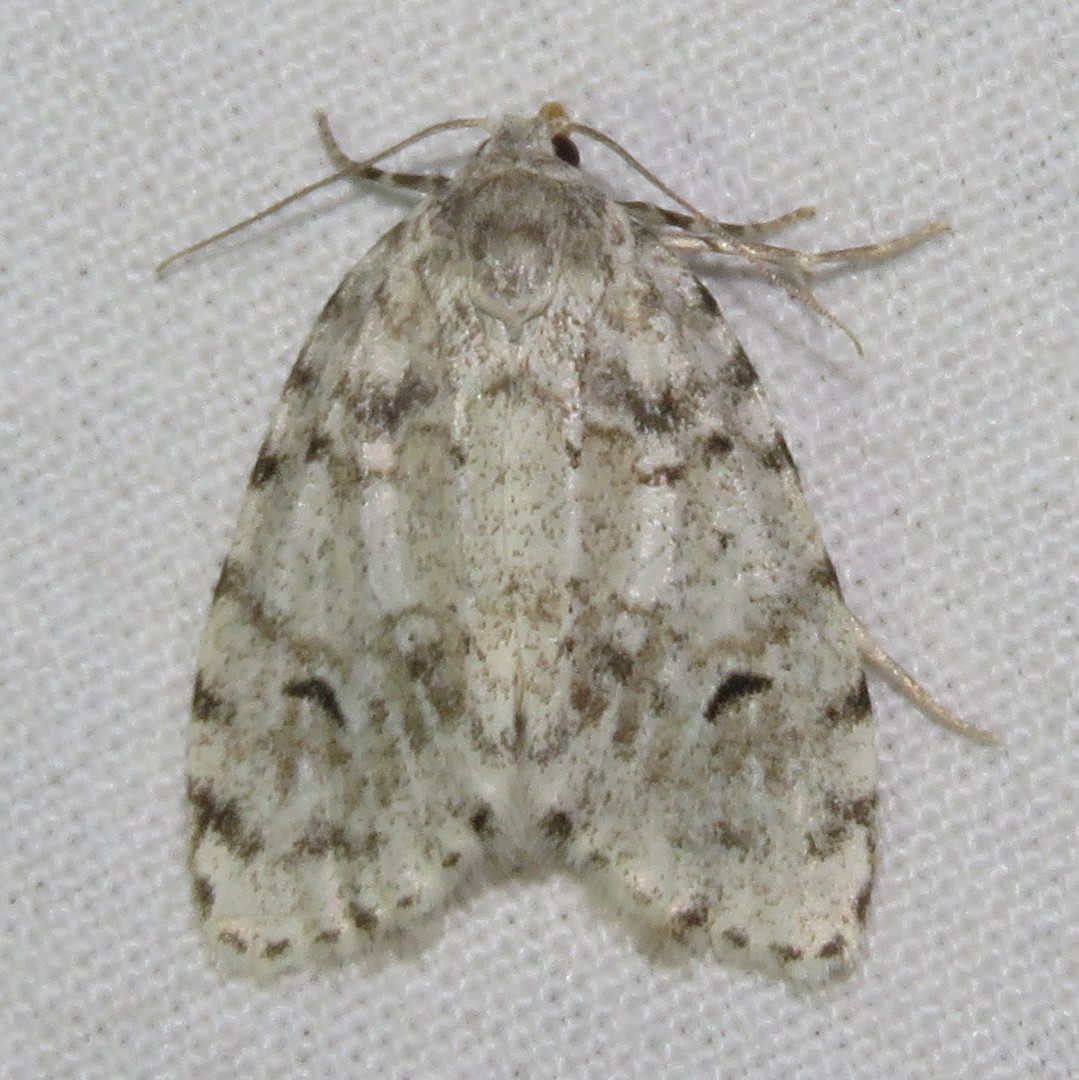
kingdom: Animalia
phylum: Arthropoda
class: Insecta
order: Lepidoptera
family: Erebidae
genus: Clemensia
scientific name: Clemensia albata
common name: Little white lichen moth
